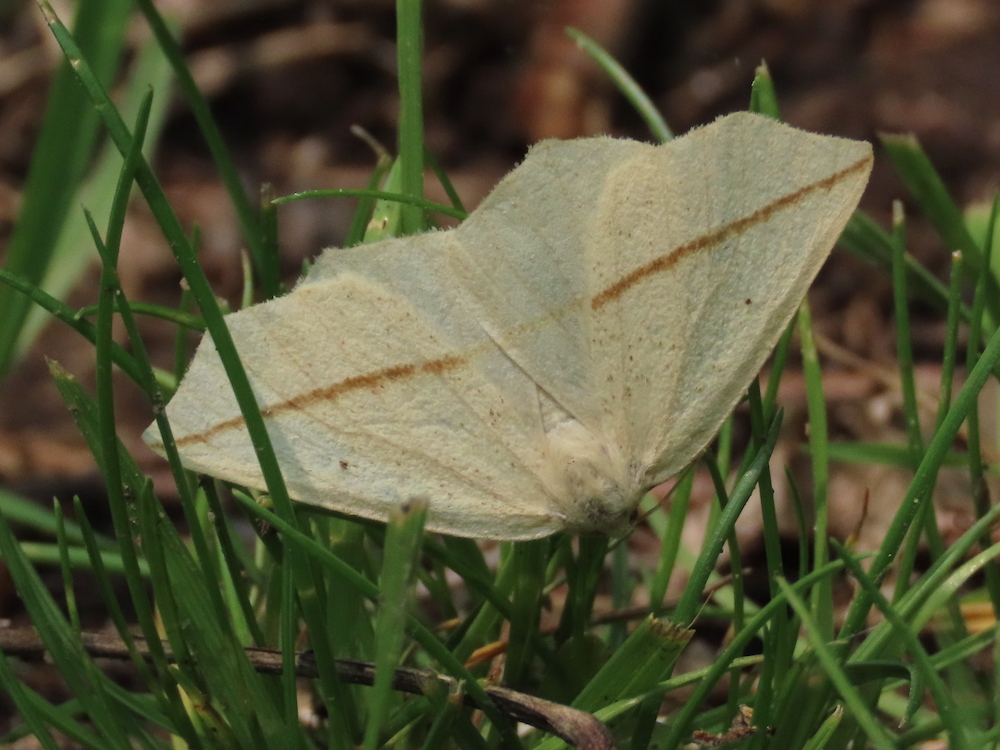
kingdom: Animalia
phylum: Arthropoda
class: Insecta
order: Lepidoptera
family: Geometridae
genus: Tetracis
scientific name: Tetracis crocallata
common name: Yellow slant-line
